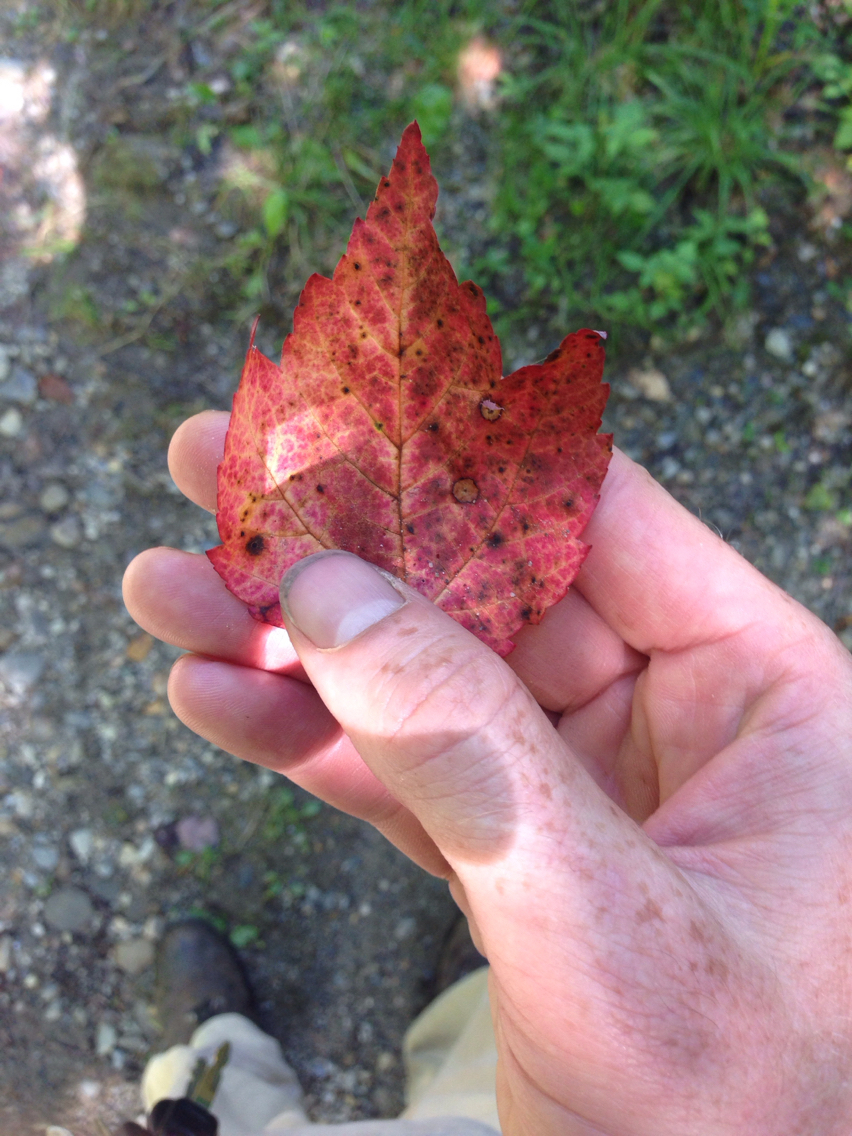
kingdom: Plantae
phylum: Tracheophyta
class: Magnoliopsida
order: Sapindales
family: Sapindaceae
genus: Acer
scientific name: Acer rubrum
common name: Red maple
